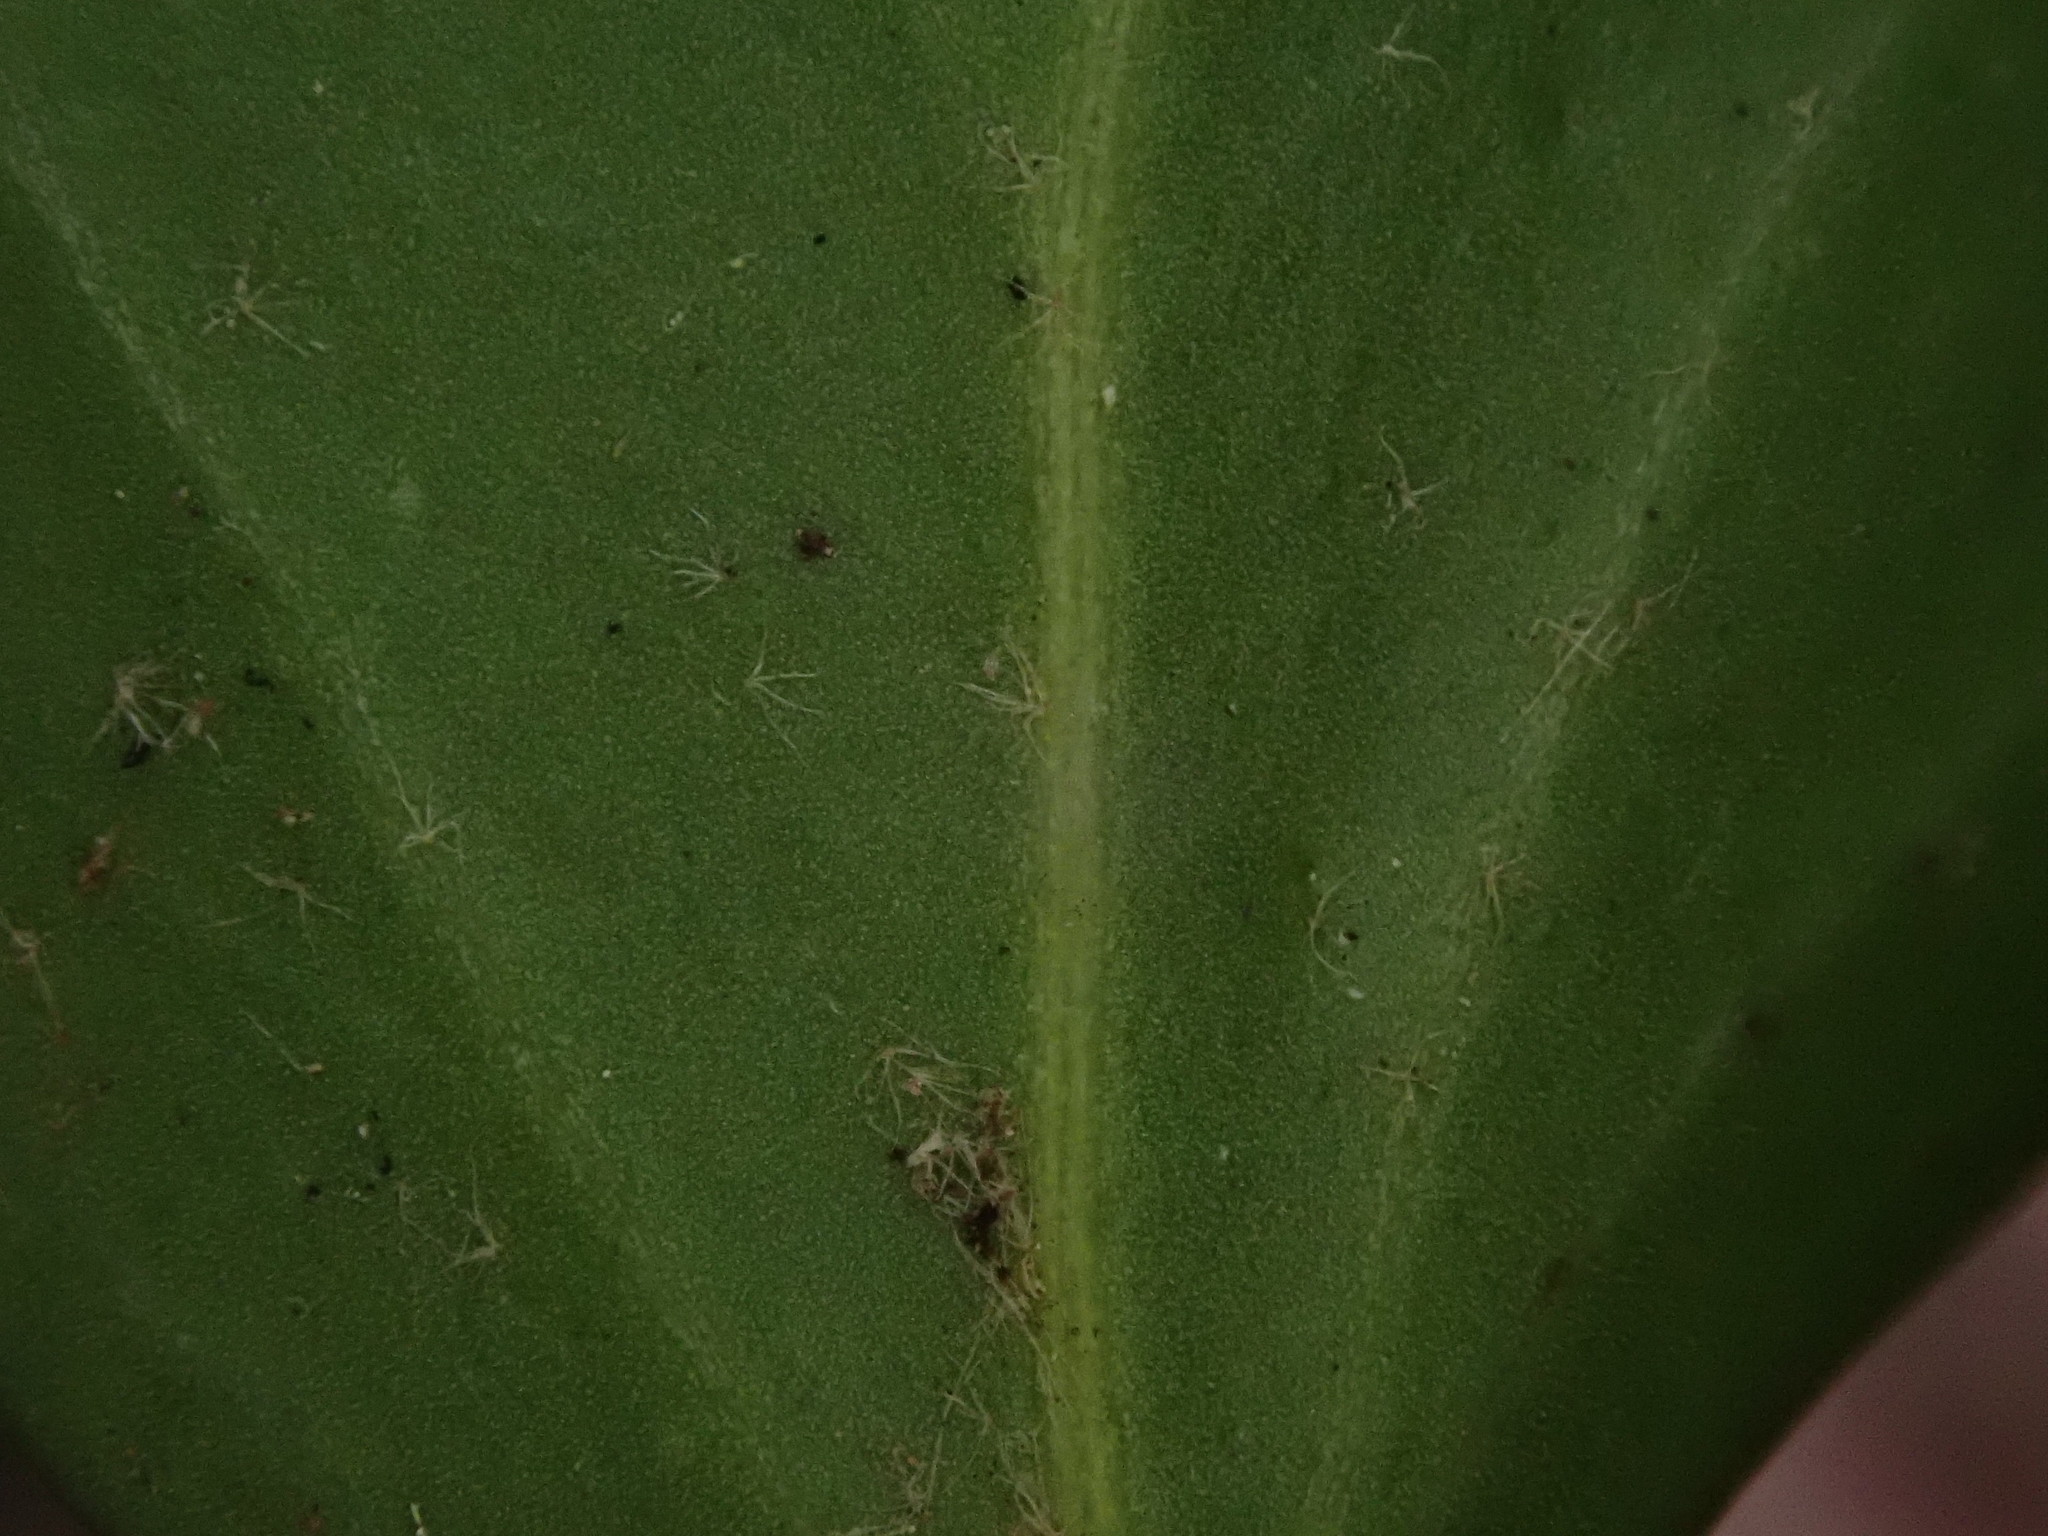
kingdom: Plantae
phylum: Tracheophyta
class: Magnoliopsida
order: Apiales
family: Araliaceae
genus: Hedera
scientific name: Hedera helix
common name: Ivy
